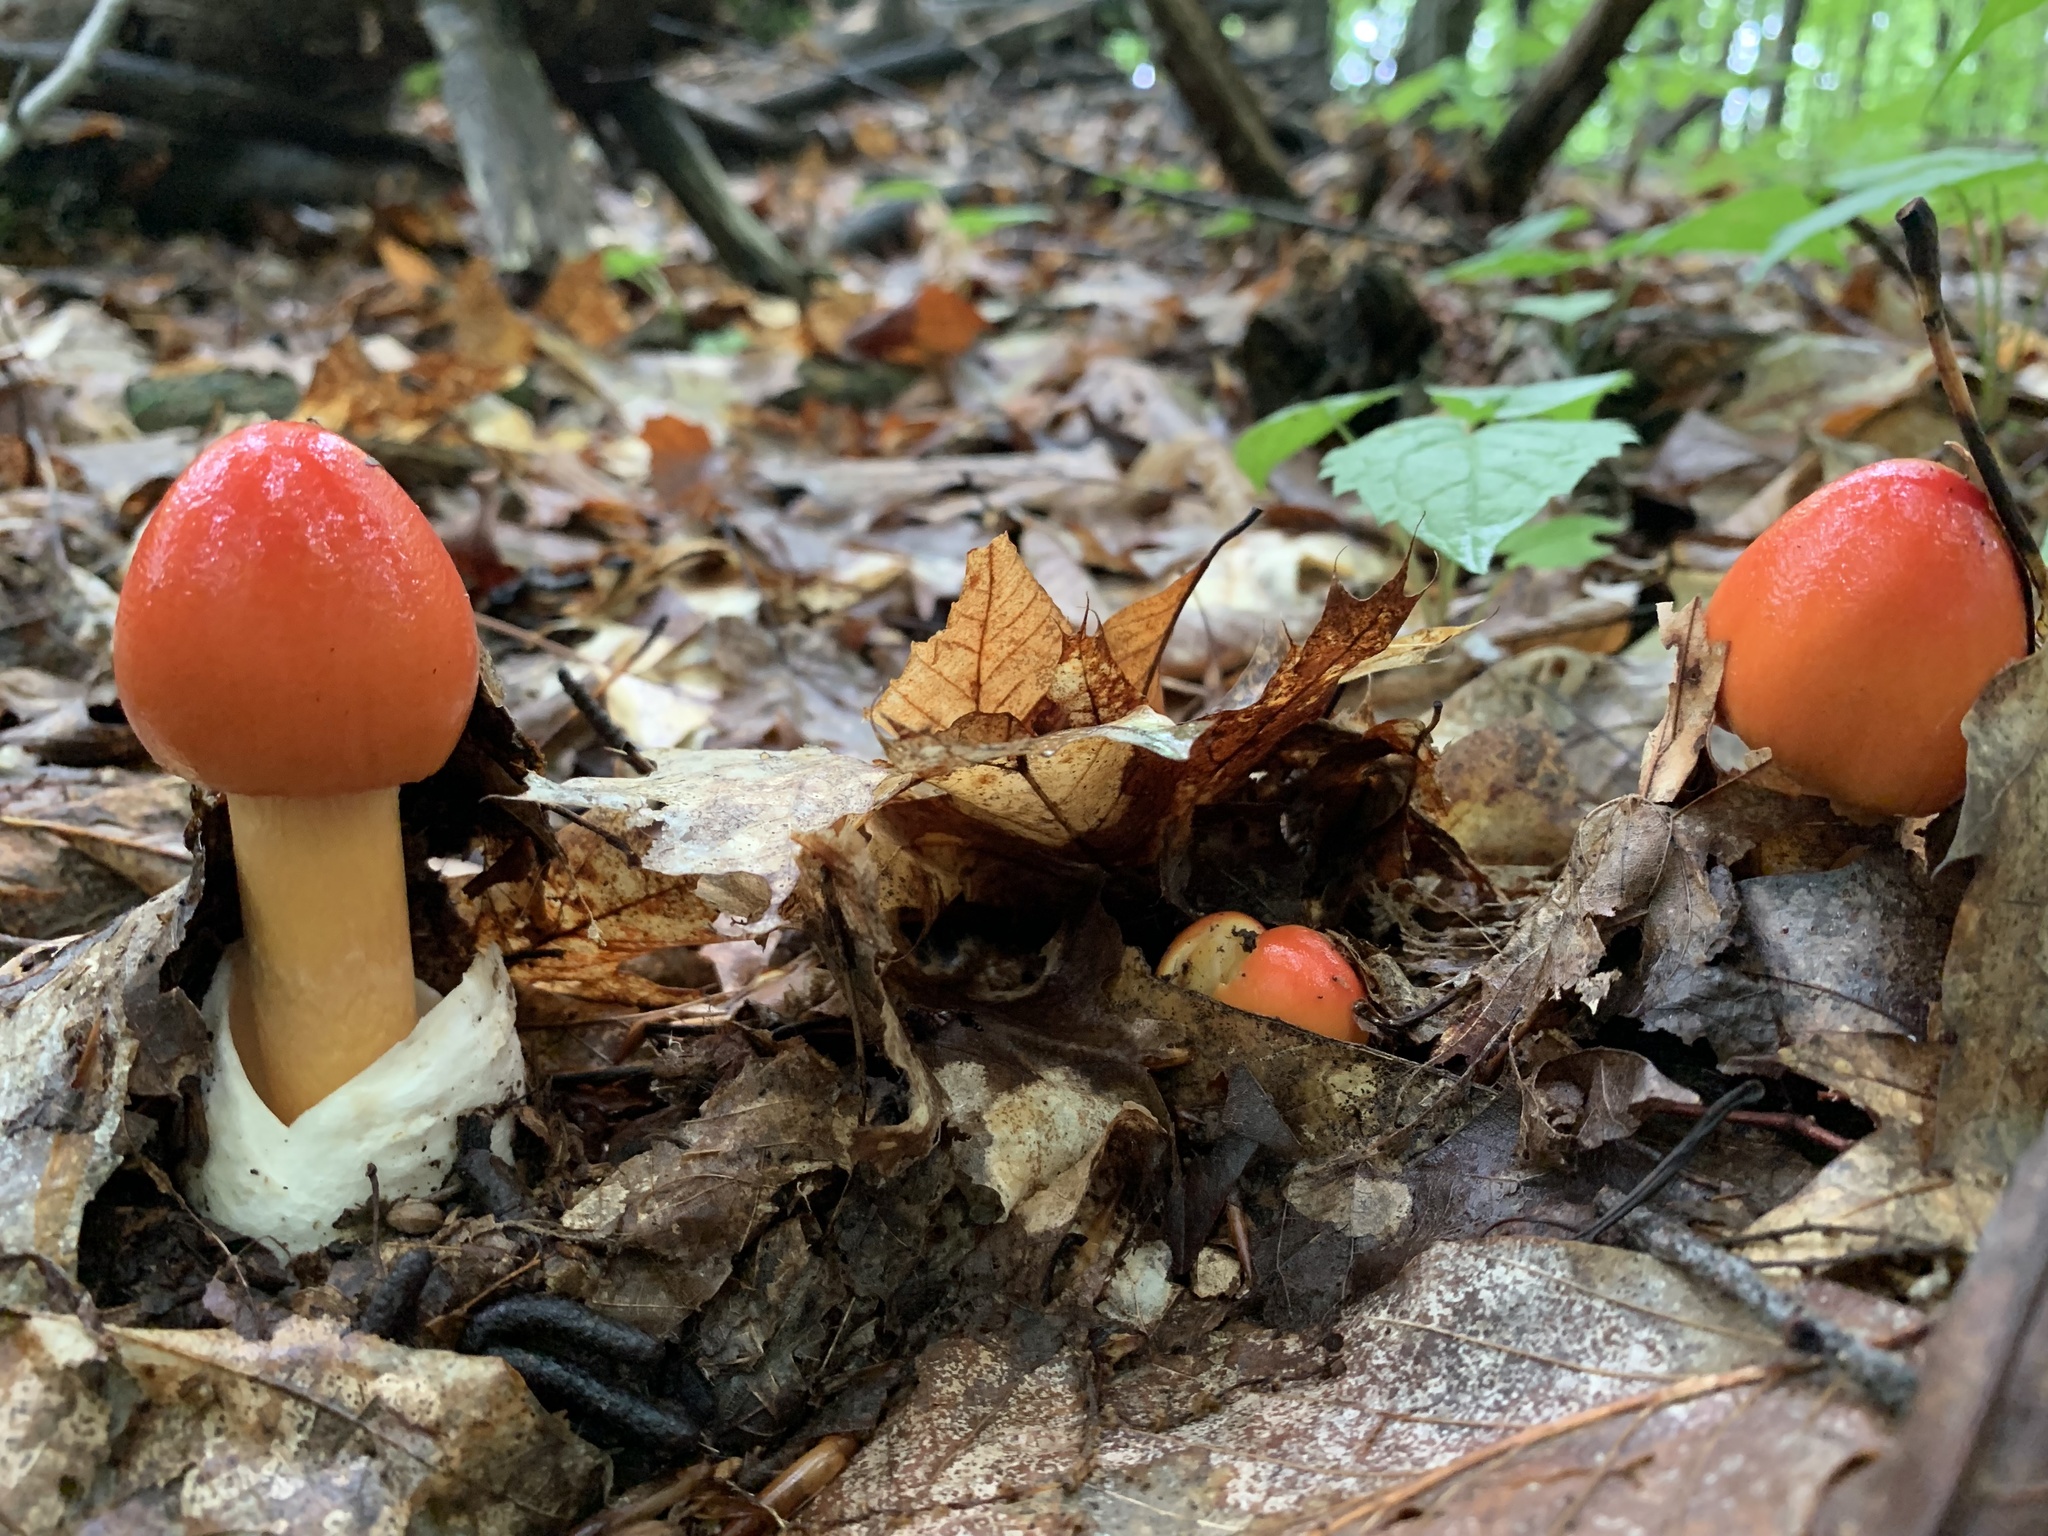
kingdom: Fungi
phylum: Basidiomycota
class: Agaricomycetes
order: Agaricales
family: Amanitaceae
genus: Amanita
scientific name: Amanita jacksonii
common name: Jackson's slender caesar
